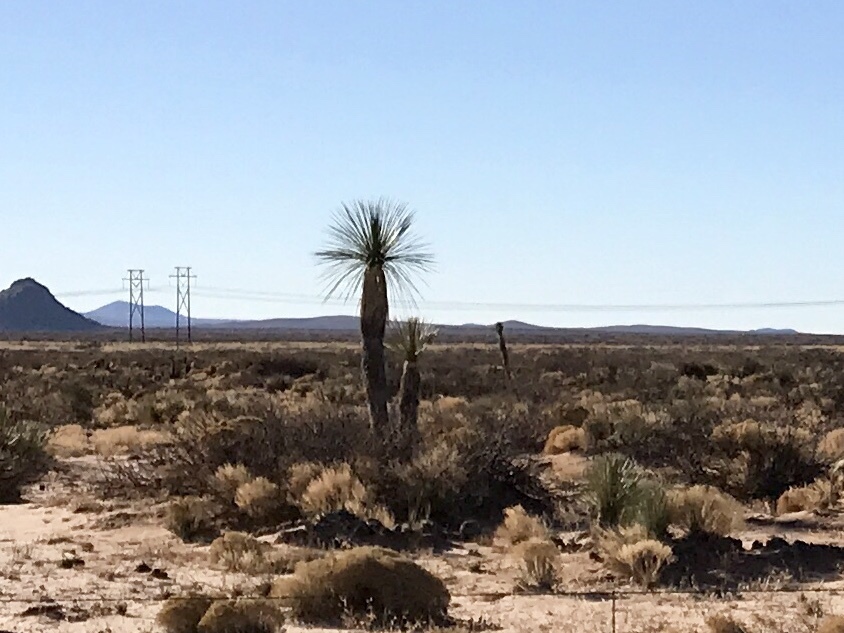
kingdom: Plantae
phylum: Tracheophyta
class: Liliopsida
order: Asparagales
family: Asparagaceae
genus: Yucca
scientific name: Yucca elata
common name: Palmella
